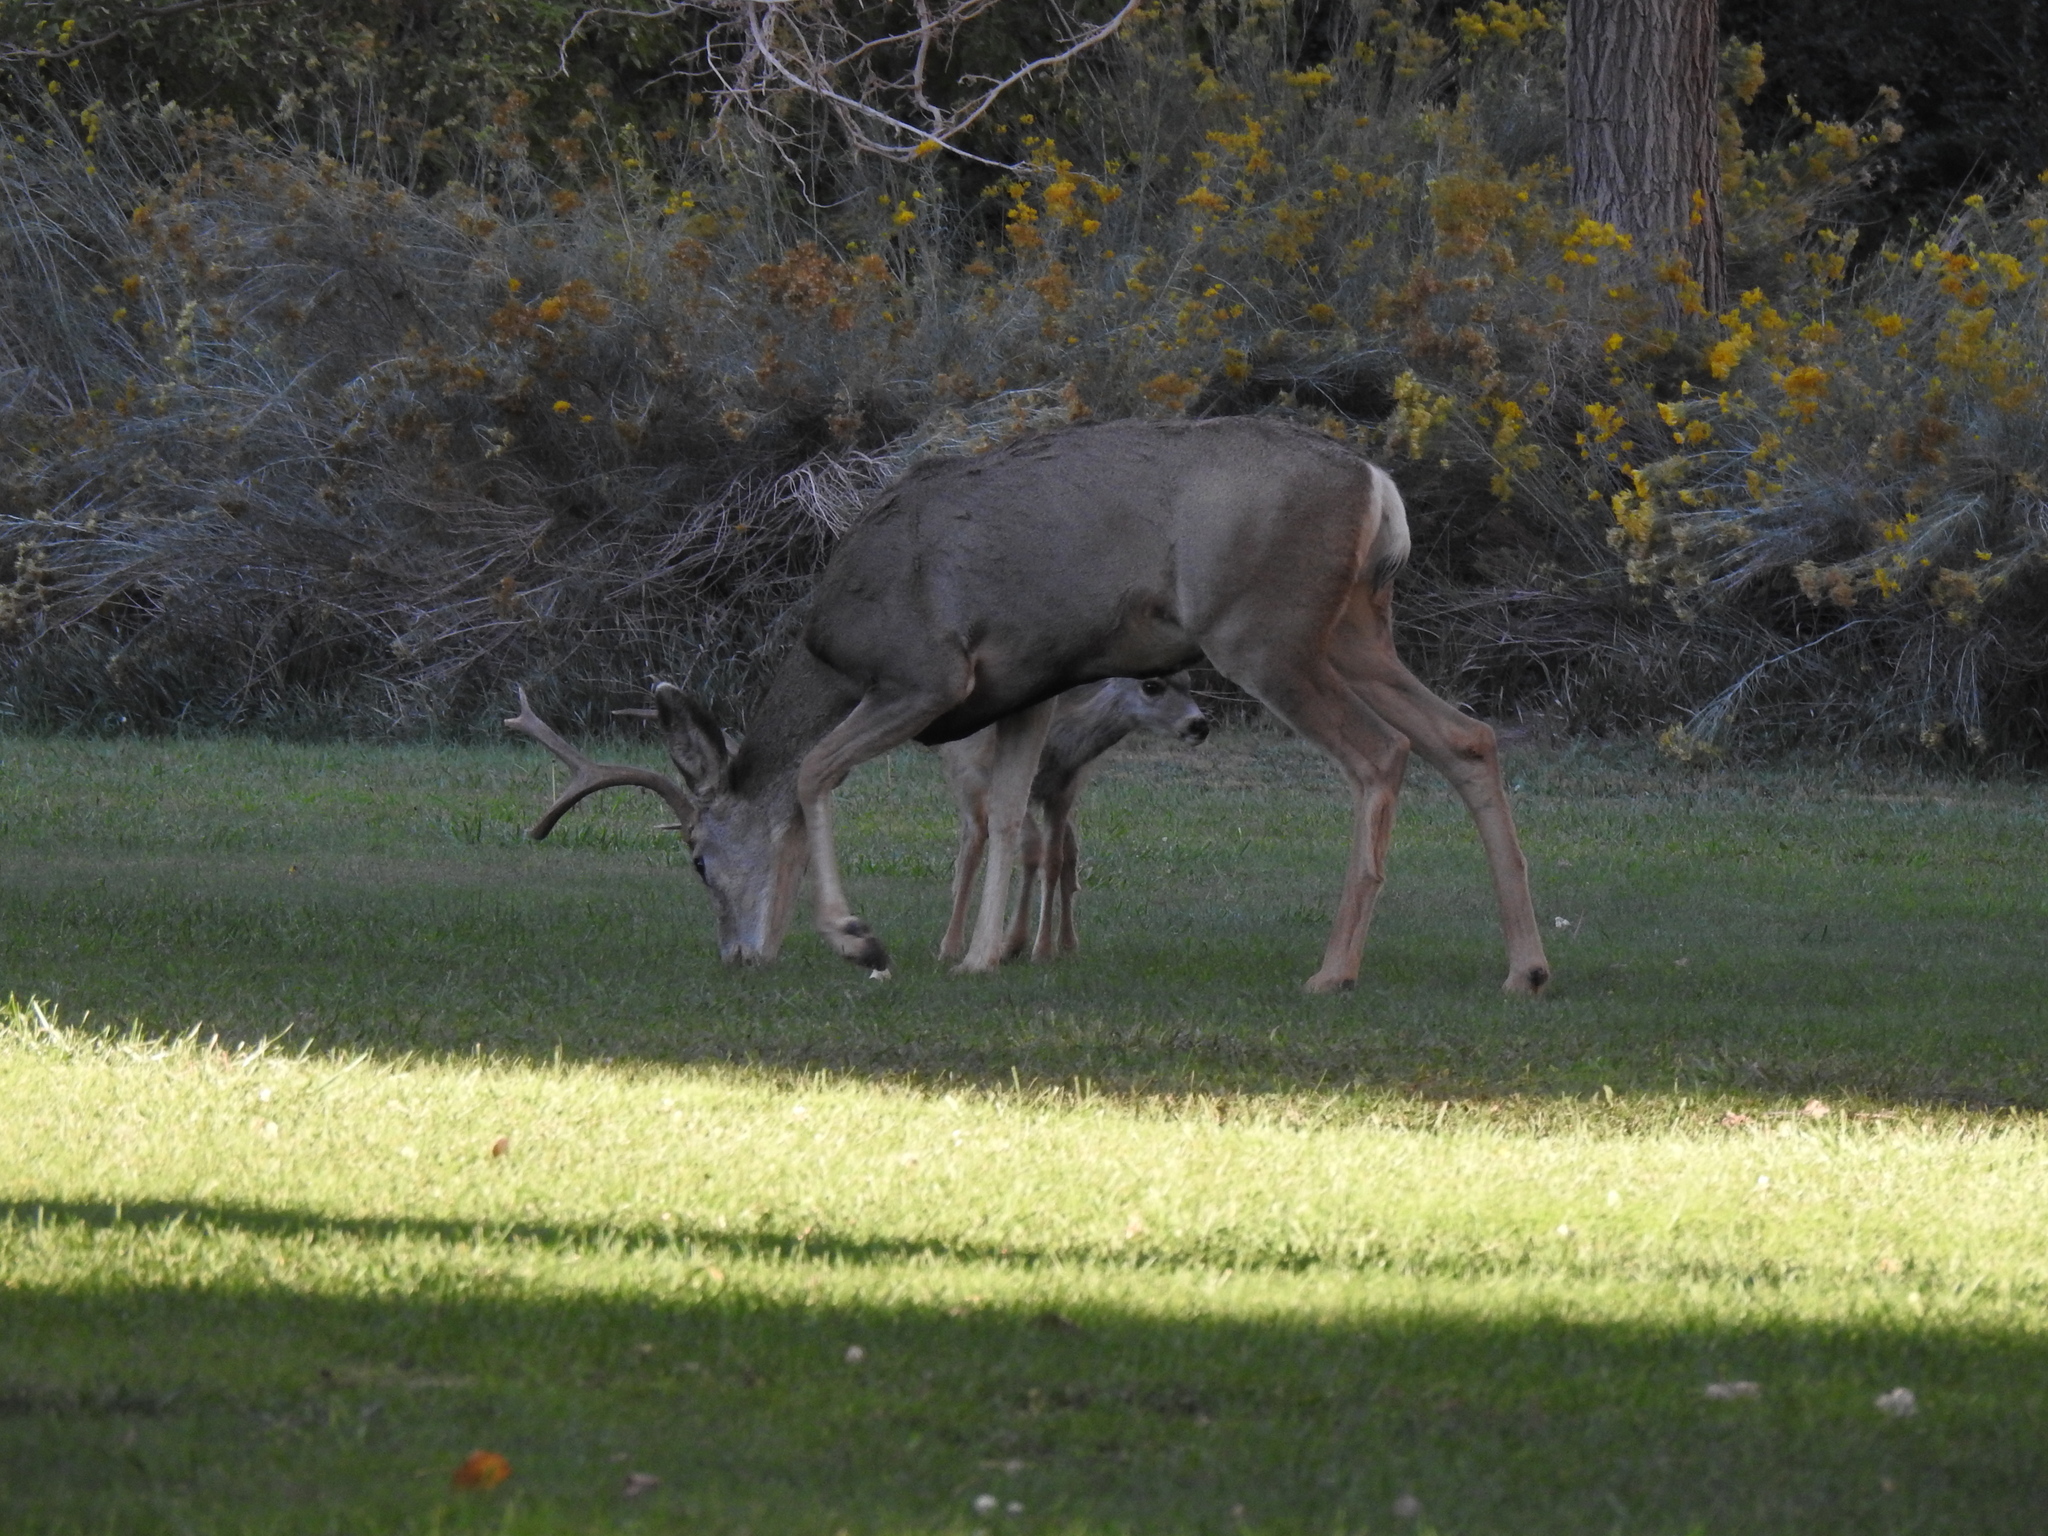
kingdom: Animalia
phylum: Chordata
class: Mammalia
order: Artiodactyla
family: Cervidae
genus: Odocoileus
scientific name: Odocoileus hemionus
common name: Mule deer
